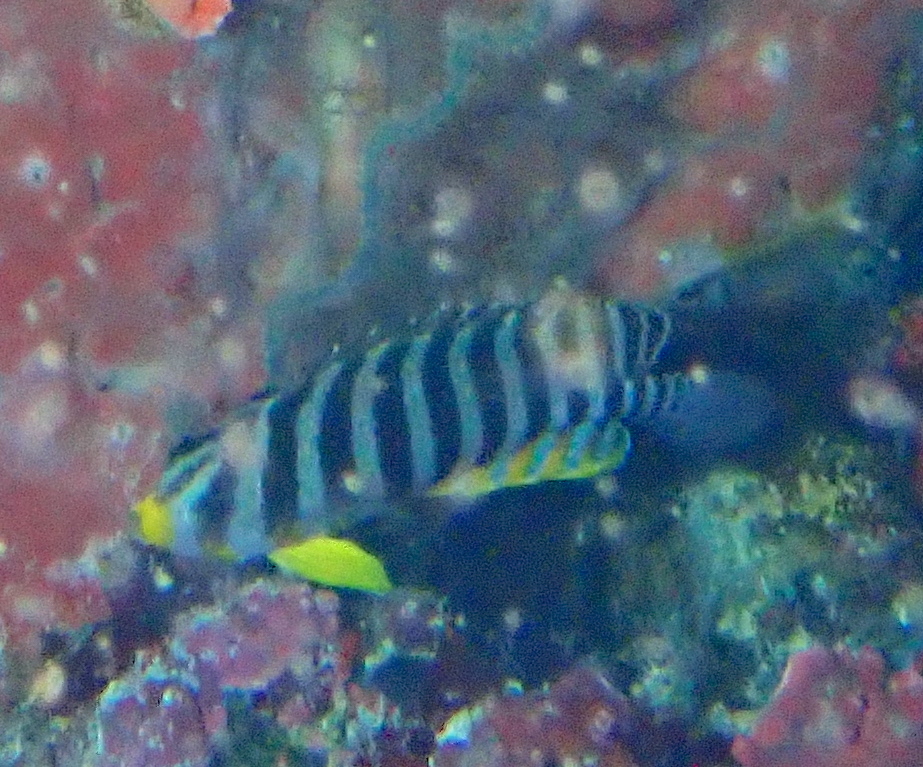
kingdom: Animalia
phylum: Chordata
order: Perciformes
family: Pomacanthidae
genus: Paracentropyge
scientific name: Paracentropyge multifasciata
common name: Barred angelfish
